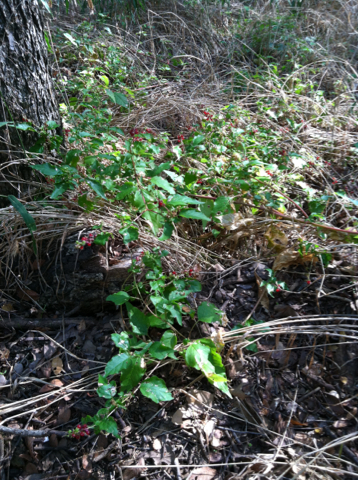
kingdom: Plantae
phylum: Tracheophyta
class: Magnoliopsida
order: Caryophyllales
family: Phytolaccaceae
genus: Rivina
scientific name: Rivina humilis
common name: Rougeplant
